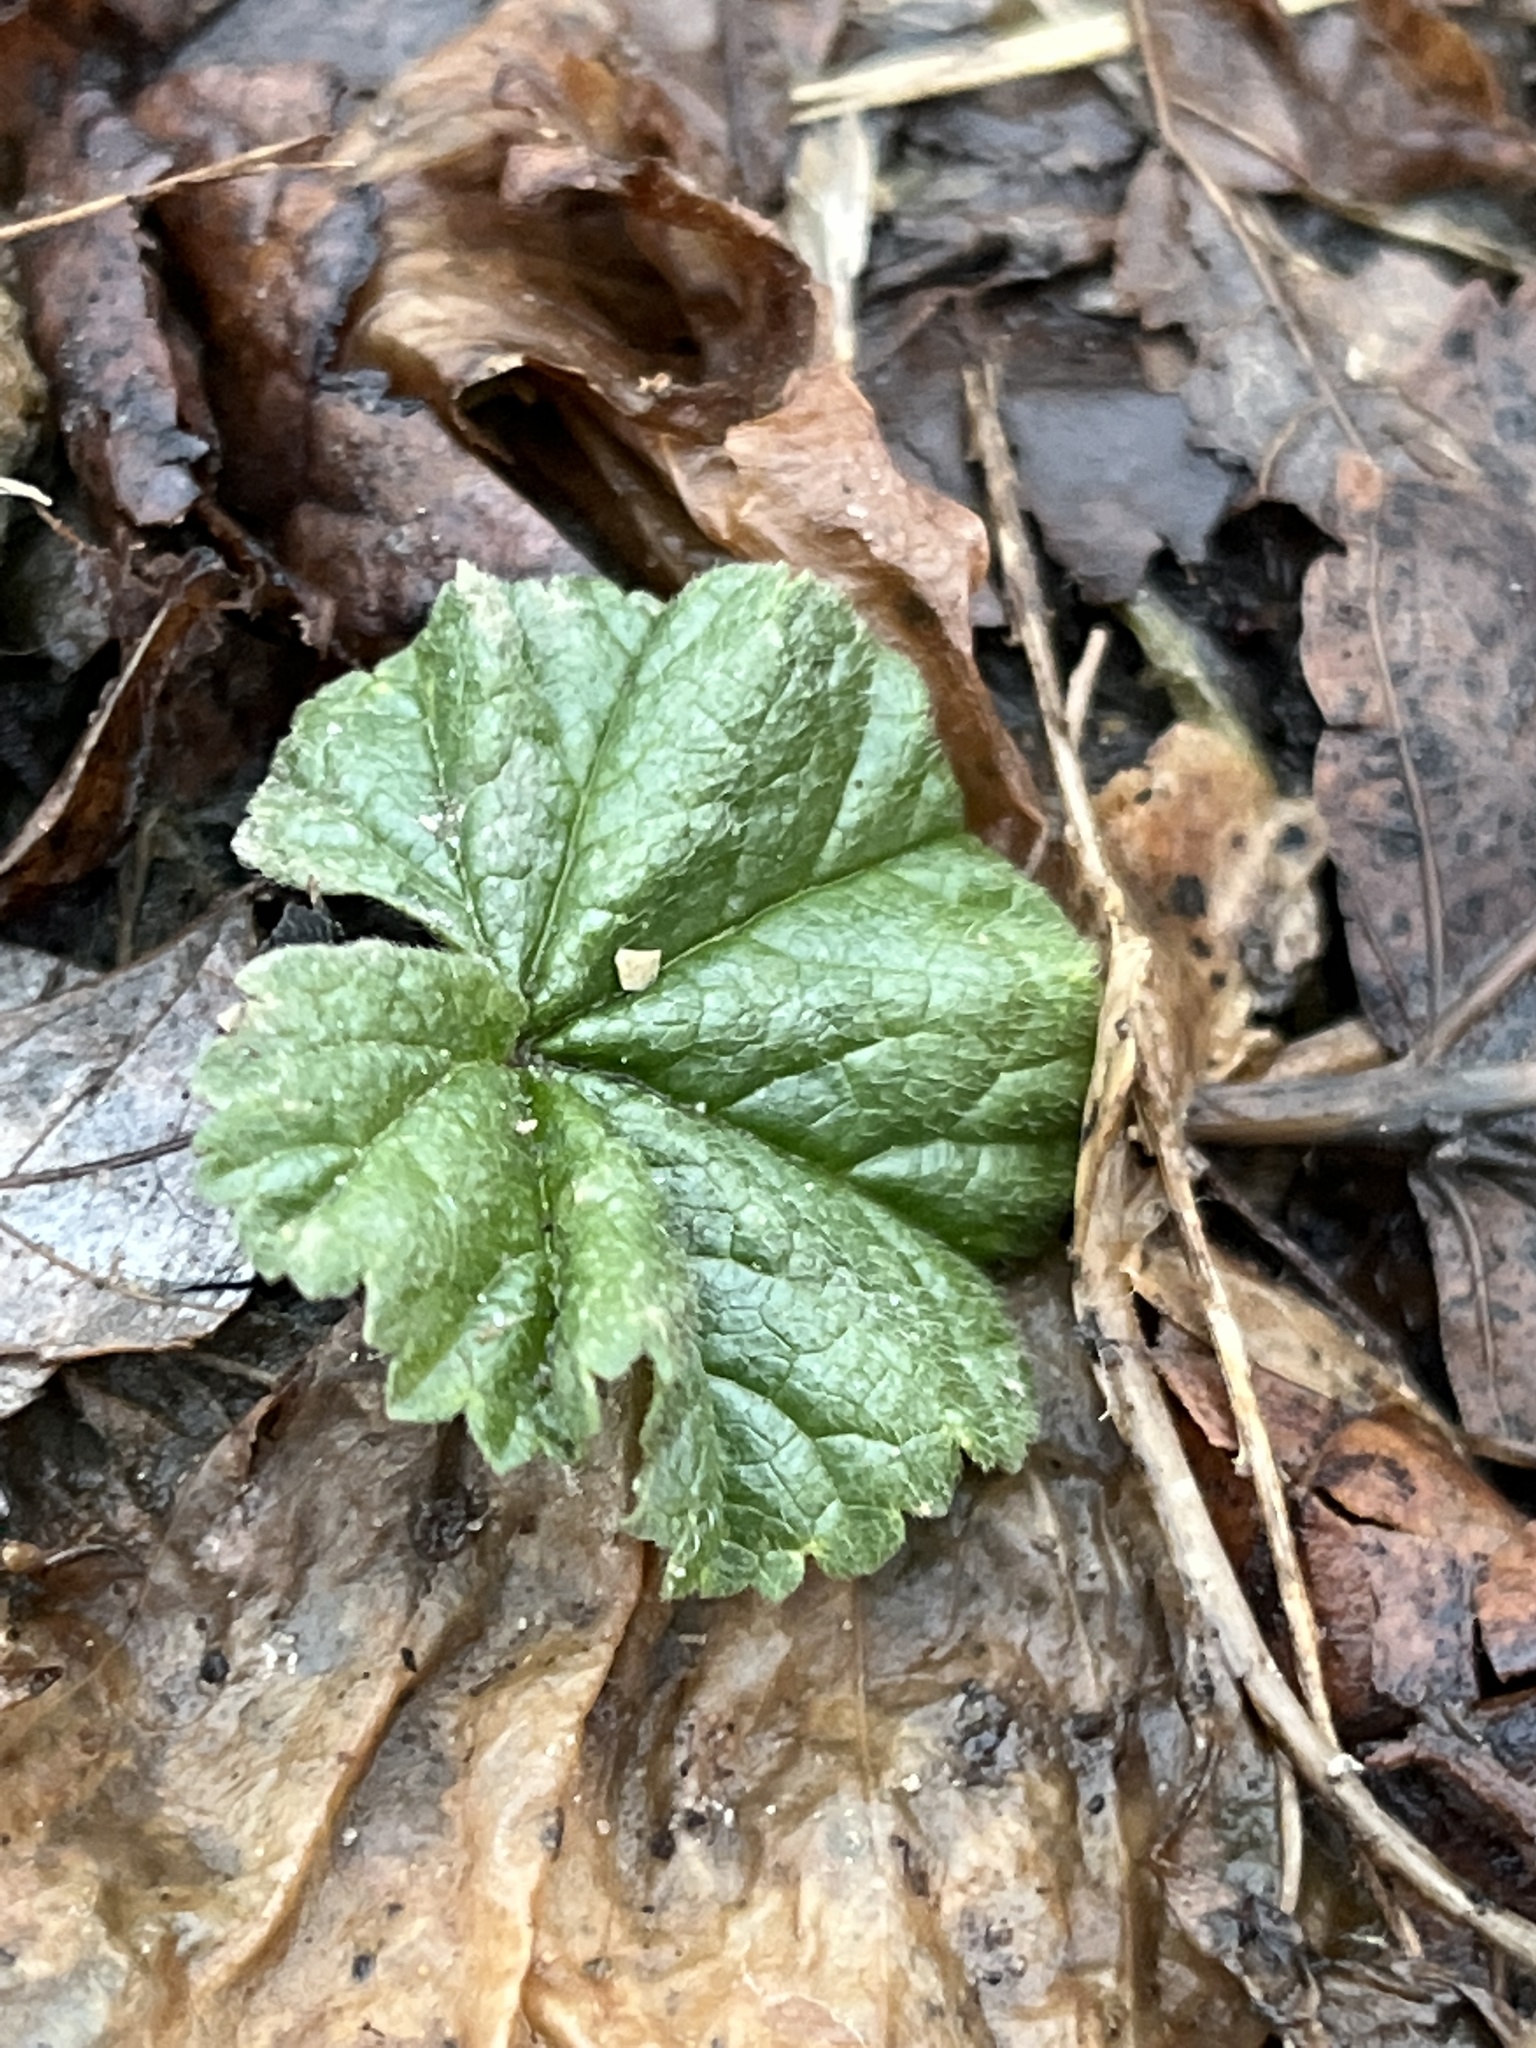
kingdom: Plantae
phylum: Tracheophyta
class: Magnoliopsida
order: Malvales
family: Malvaceae
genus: Malva
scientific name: Malva neglecta
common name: Common mallow
